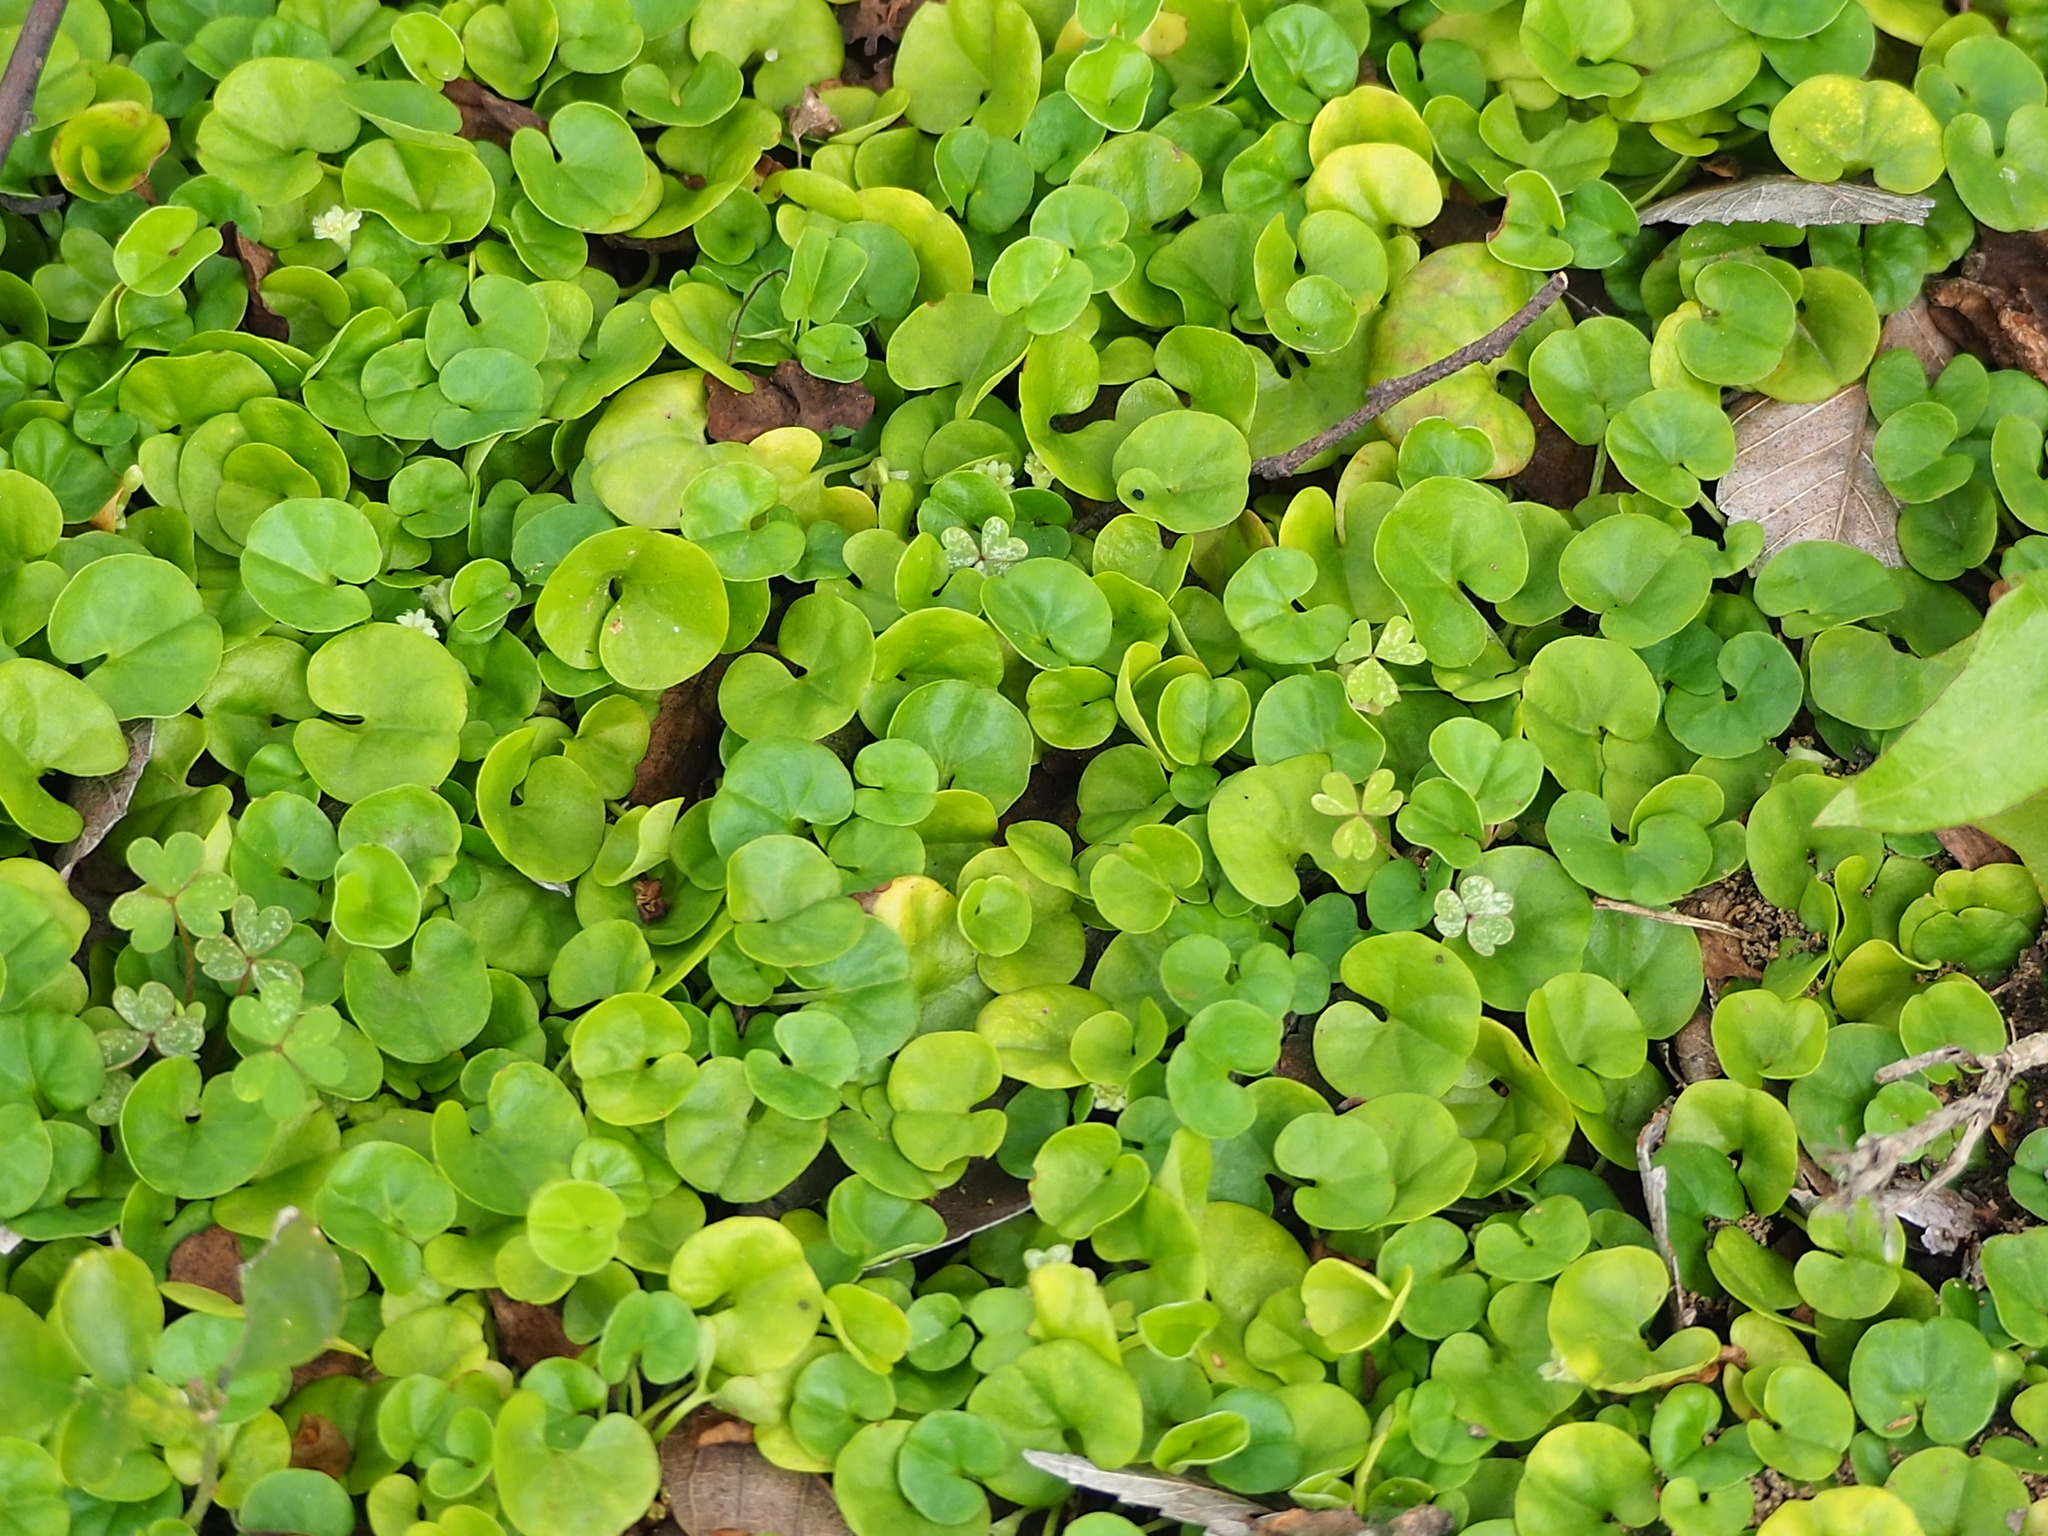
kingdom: Plantae
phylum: Tracheophyta
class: Magnoliopsida
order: Solanales
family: Convolvulaceae
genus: Dichondra
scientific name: Dichondra micrantha
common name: Kidneyweed
